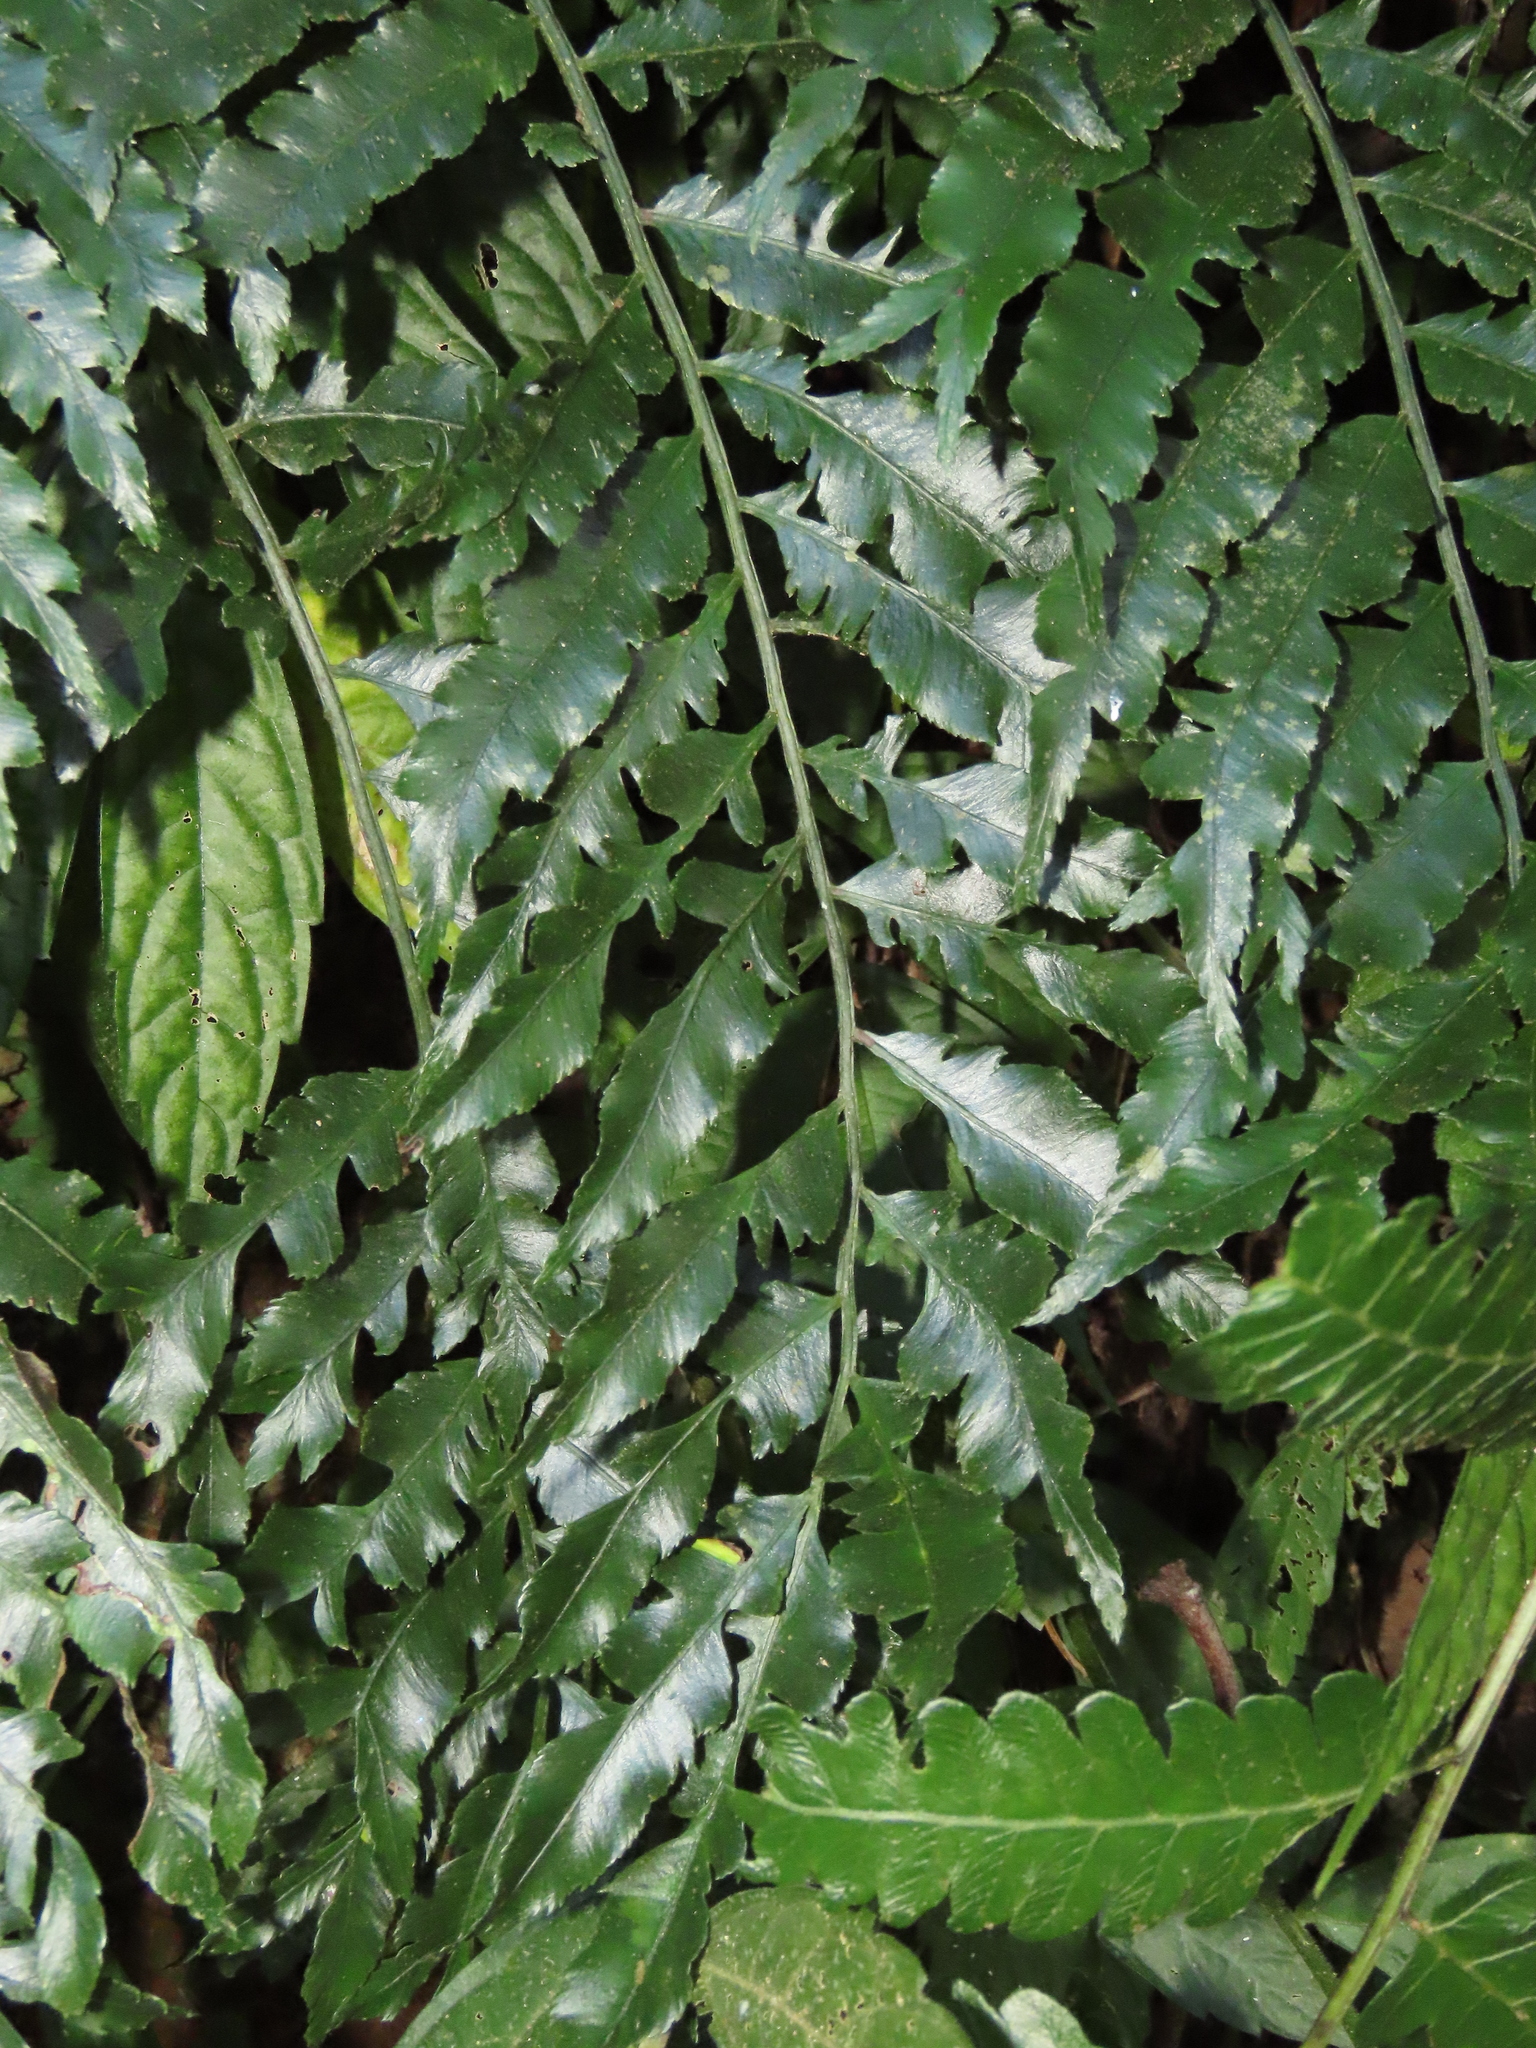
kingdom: Plantae
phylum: Tracheophyta
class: Polypodiopsida
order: Marattiales
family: Marattiaceae
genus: Angiopteris
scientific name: Angiopteris lygodiifolia
